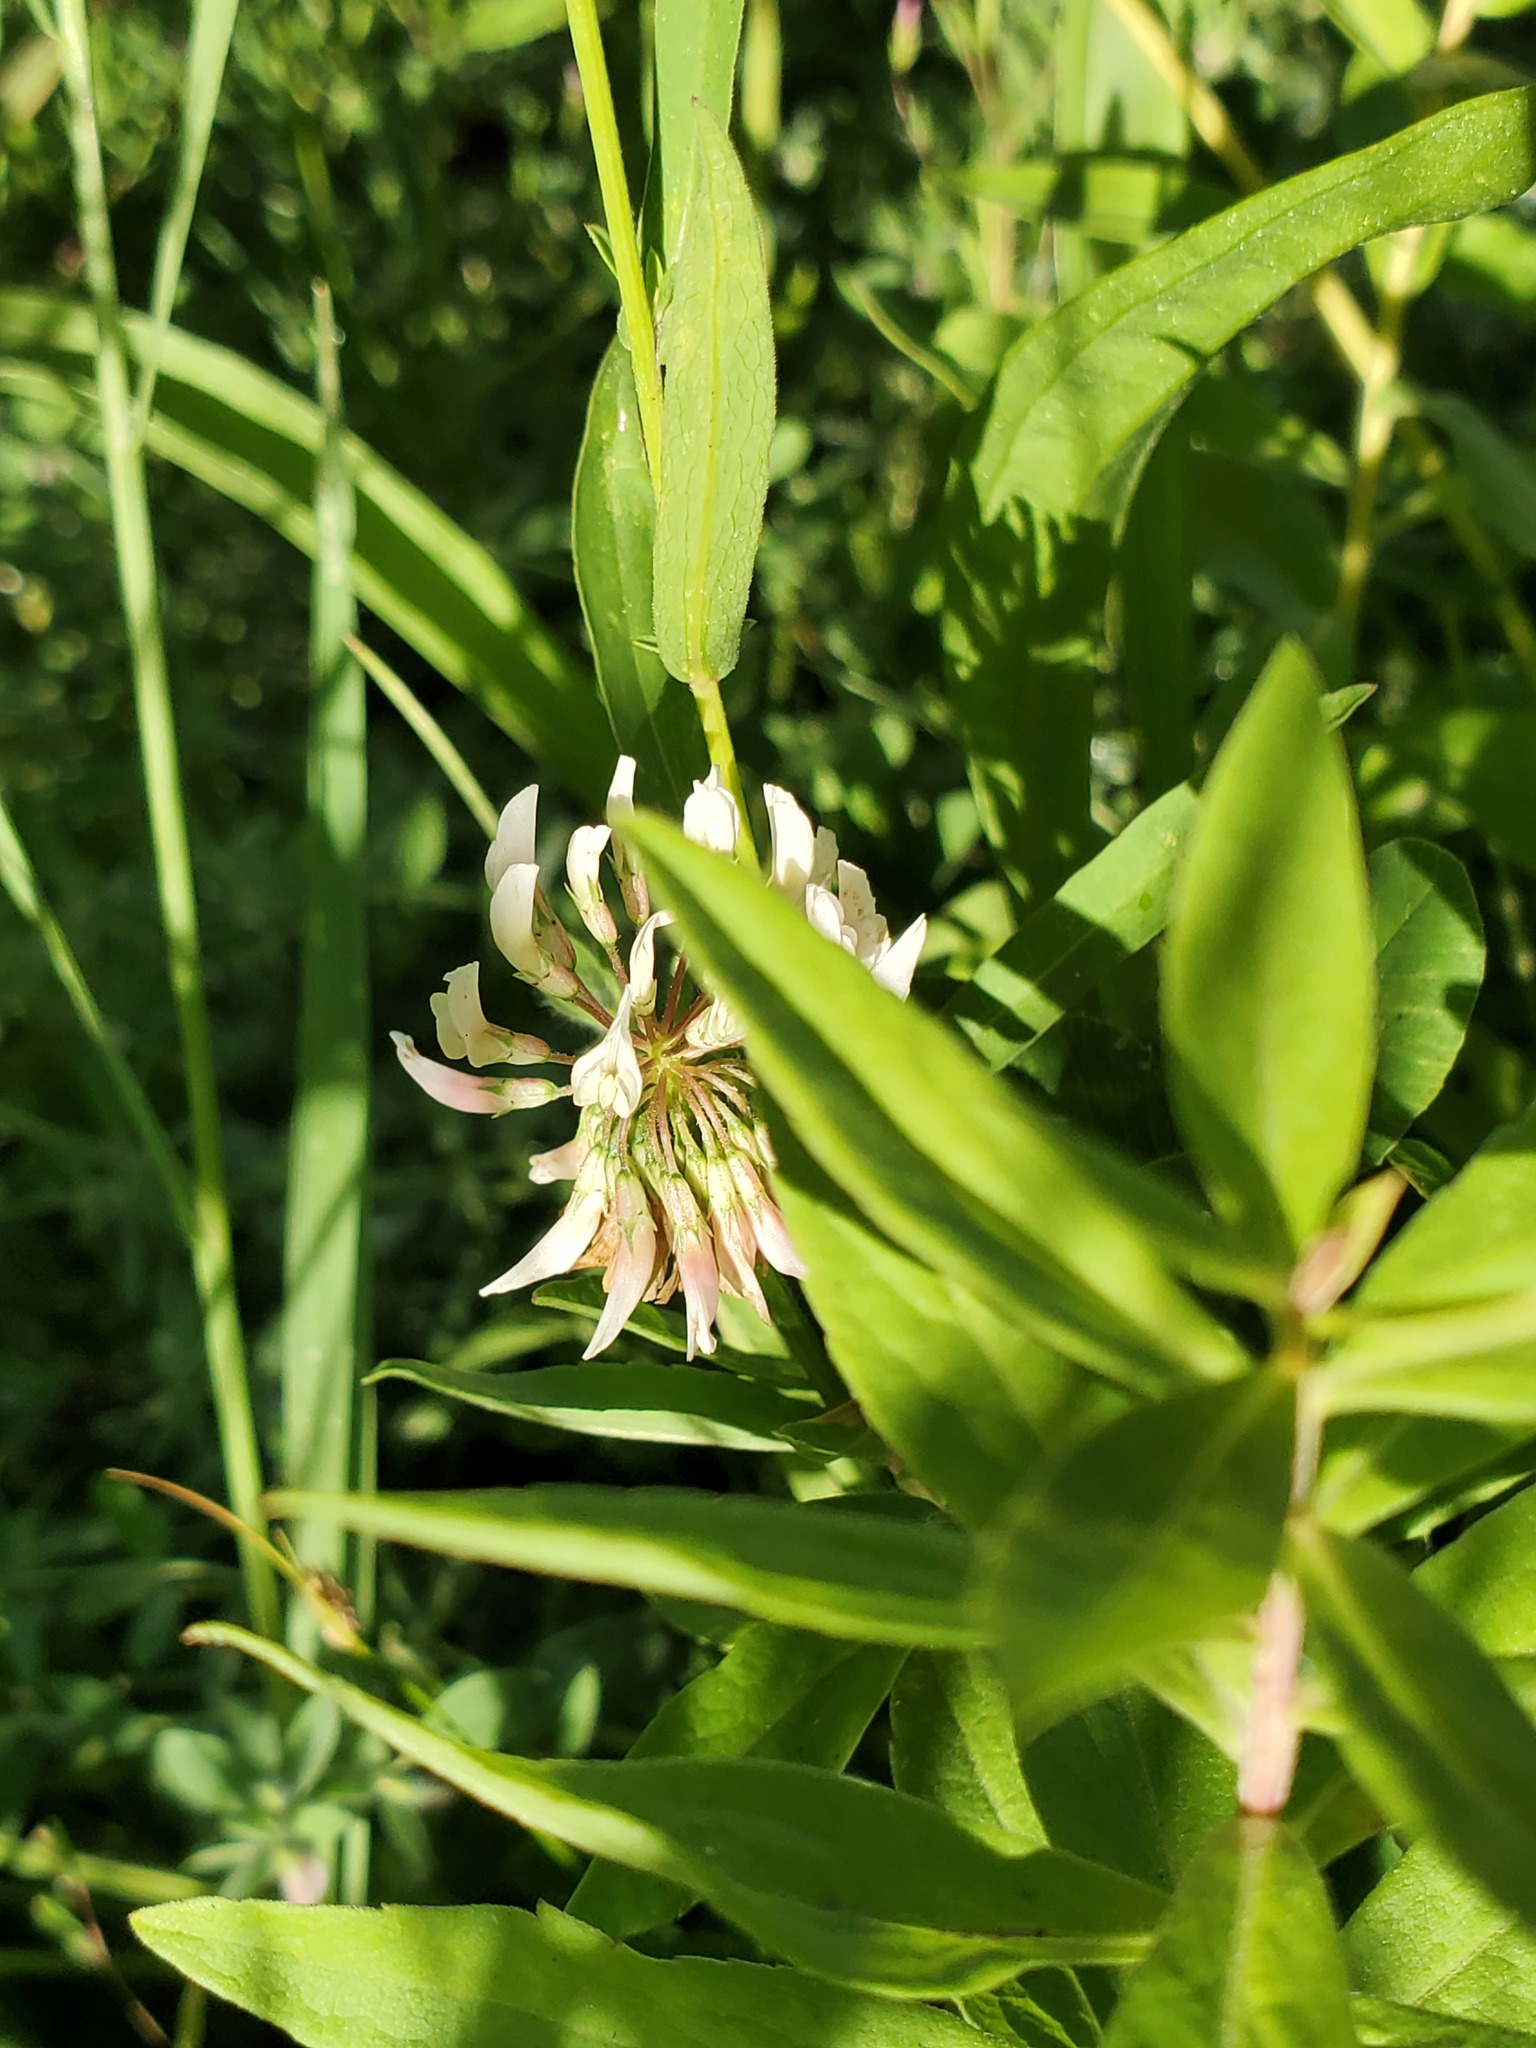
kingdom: Plantae
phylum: Tracheophyta
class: Magnoliopsida
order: Fabales
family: Fabaceae
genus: Trifolium
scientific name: Trifolium repens
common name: White clover
